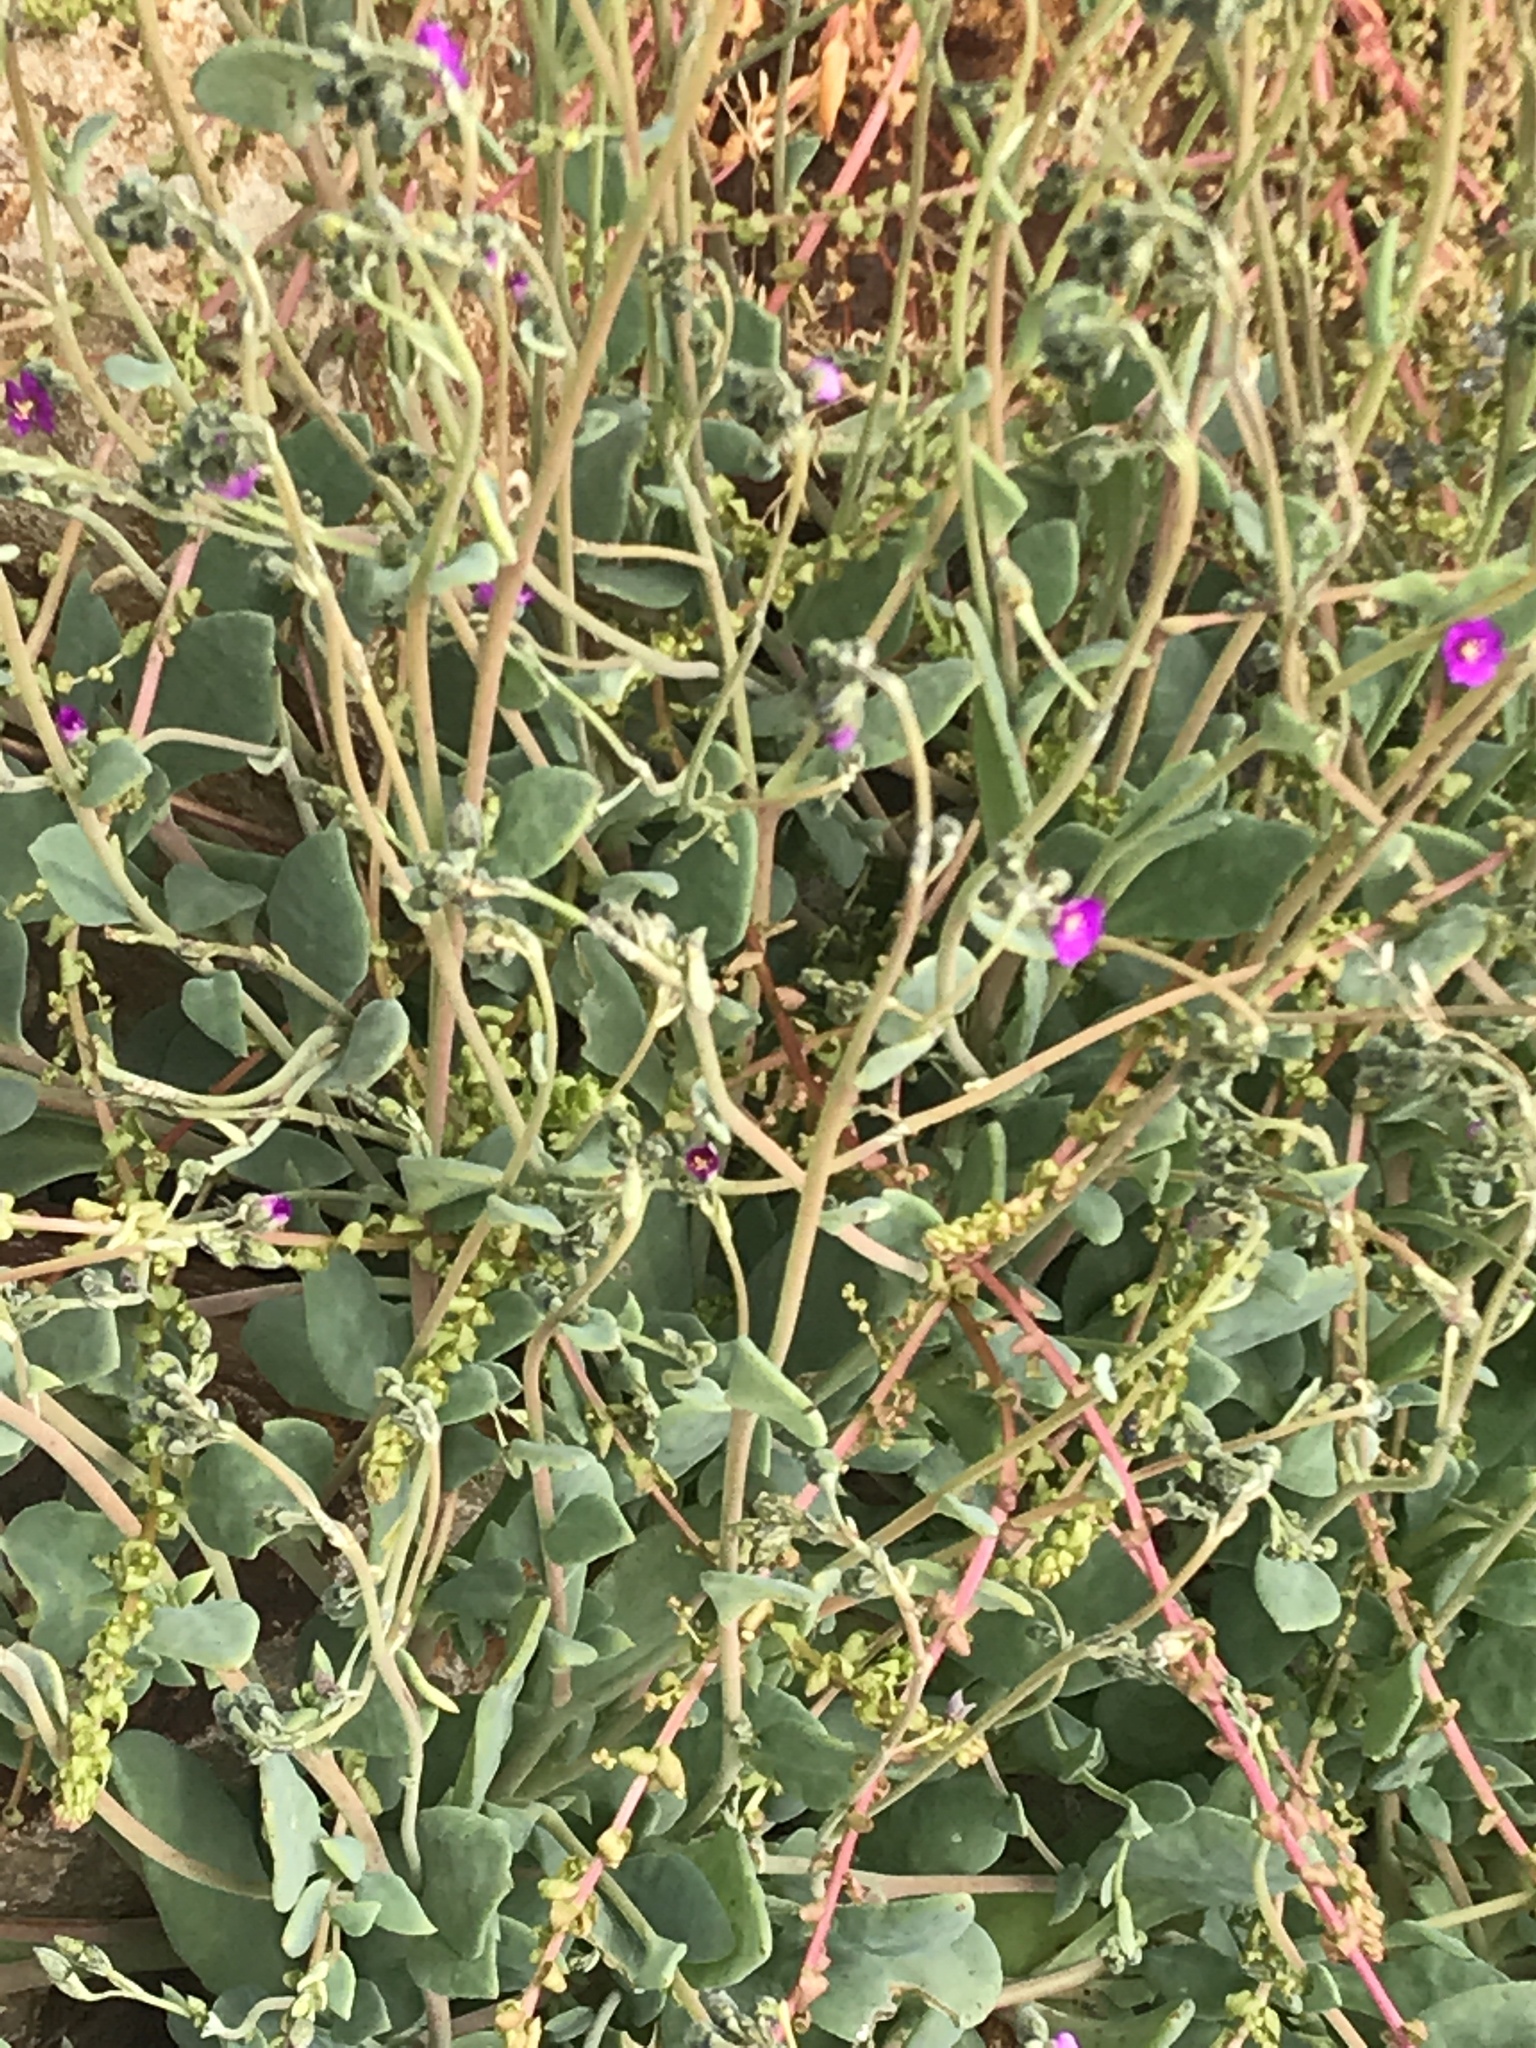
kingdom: Plantae
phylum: Tracheophyta
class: Magnoliopsida
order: Caryophyllales
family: Montiaceae
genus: Cistanthe
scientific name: Cistanthe maritima
